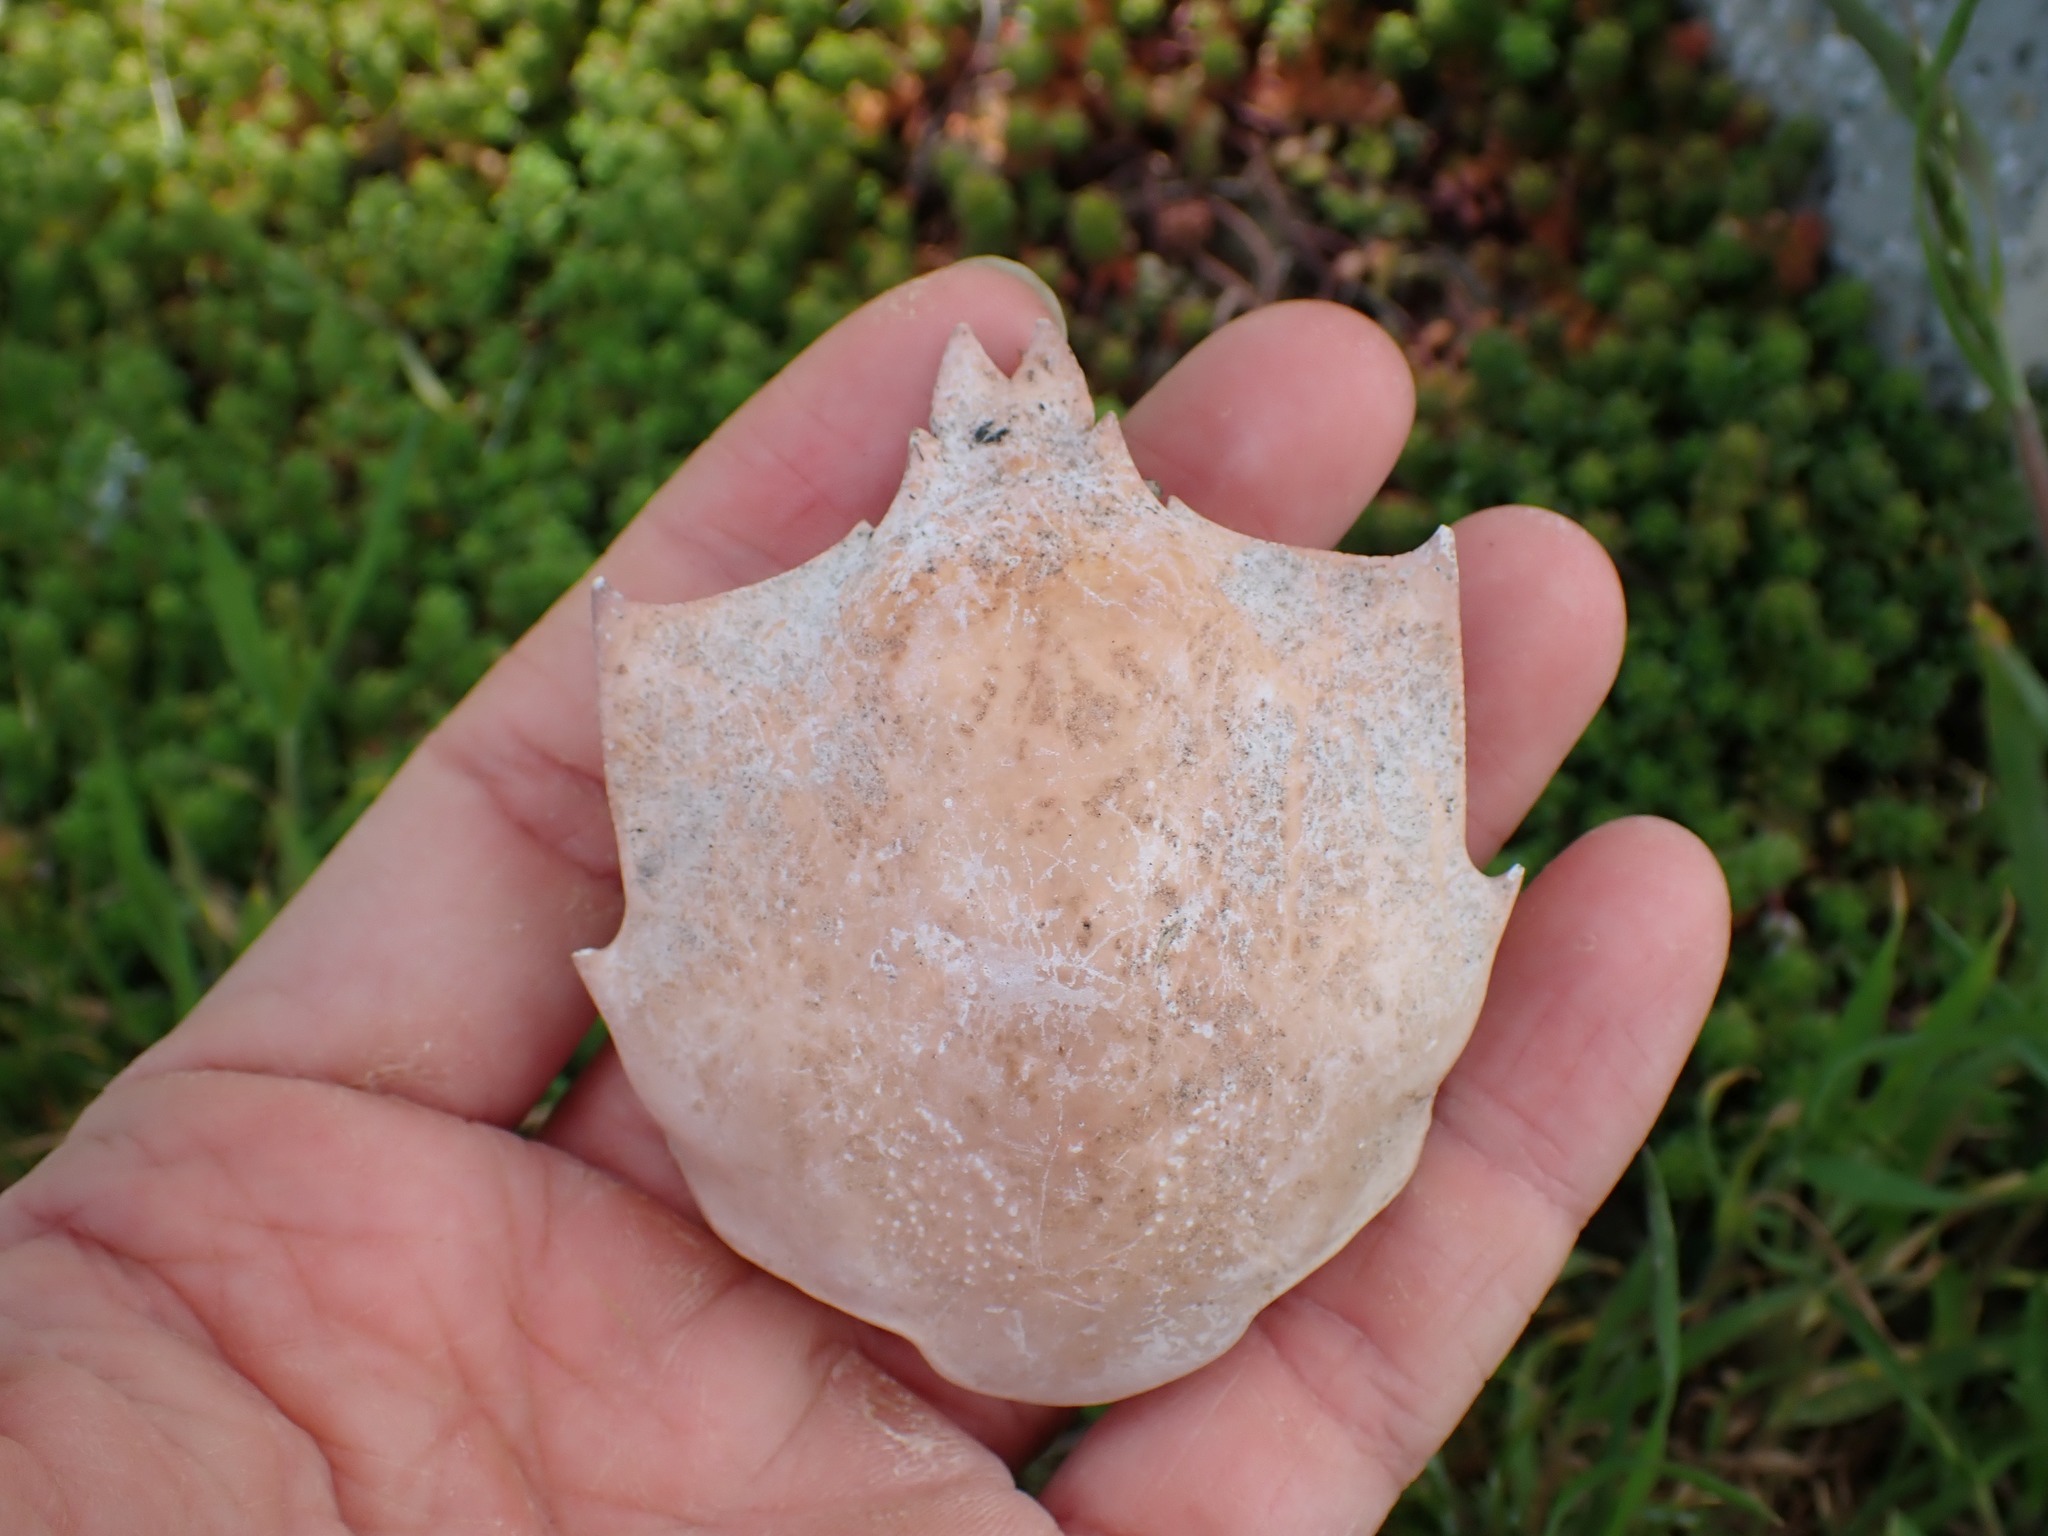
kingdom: Animalia
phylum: Arthropoda
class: Malacostraca
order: Decapoda
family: Epialtidae
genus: Pugettia
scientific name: Pugettia producta
